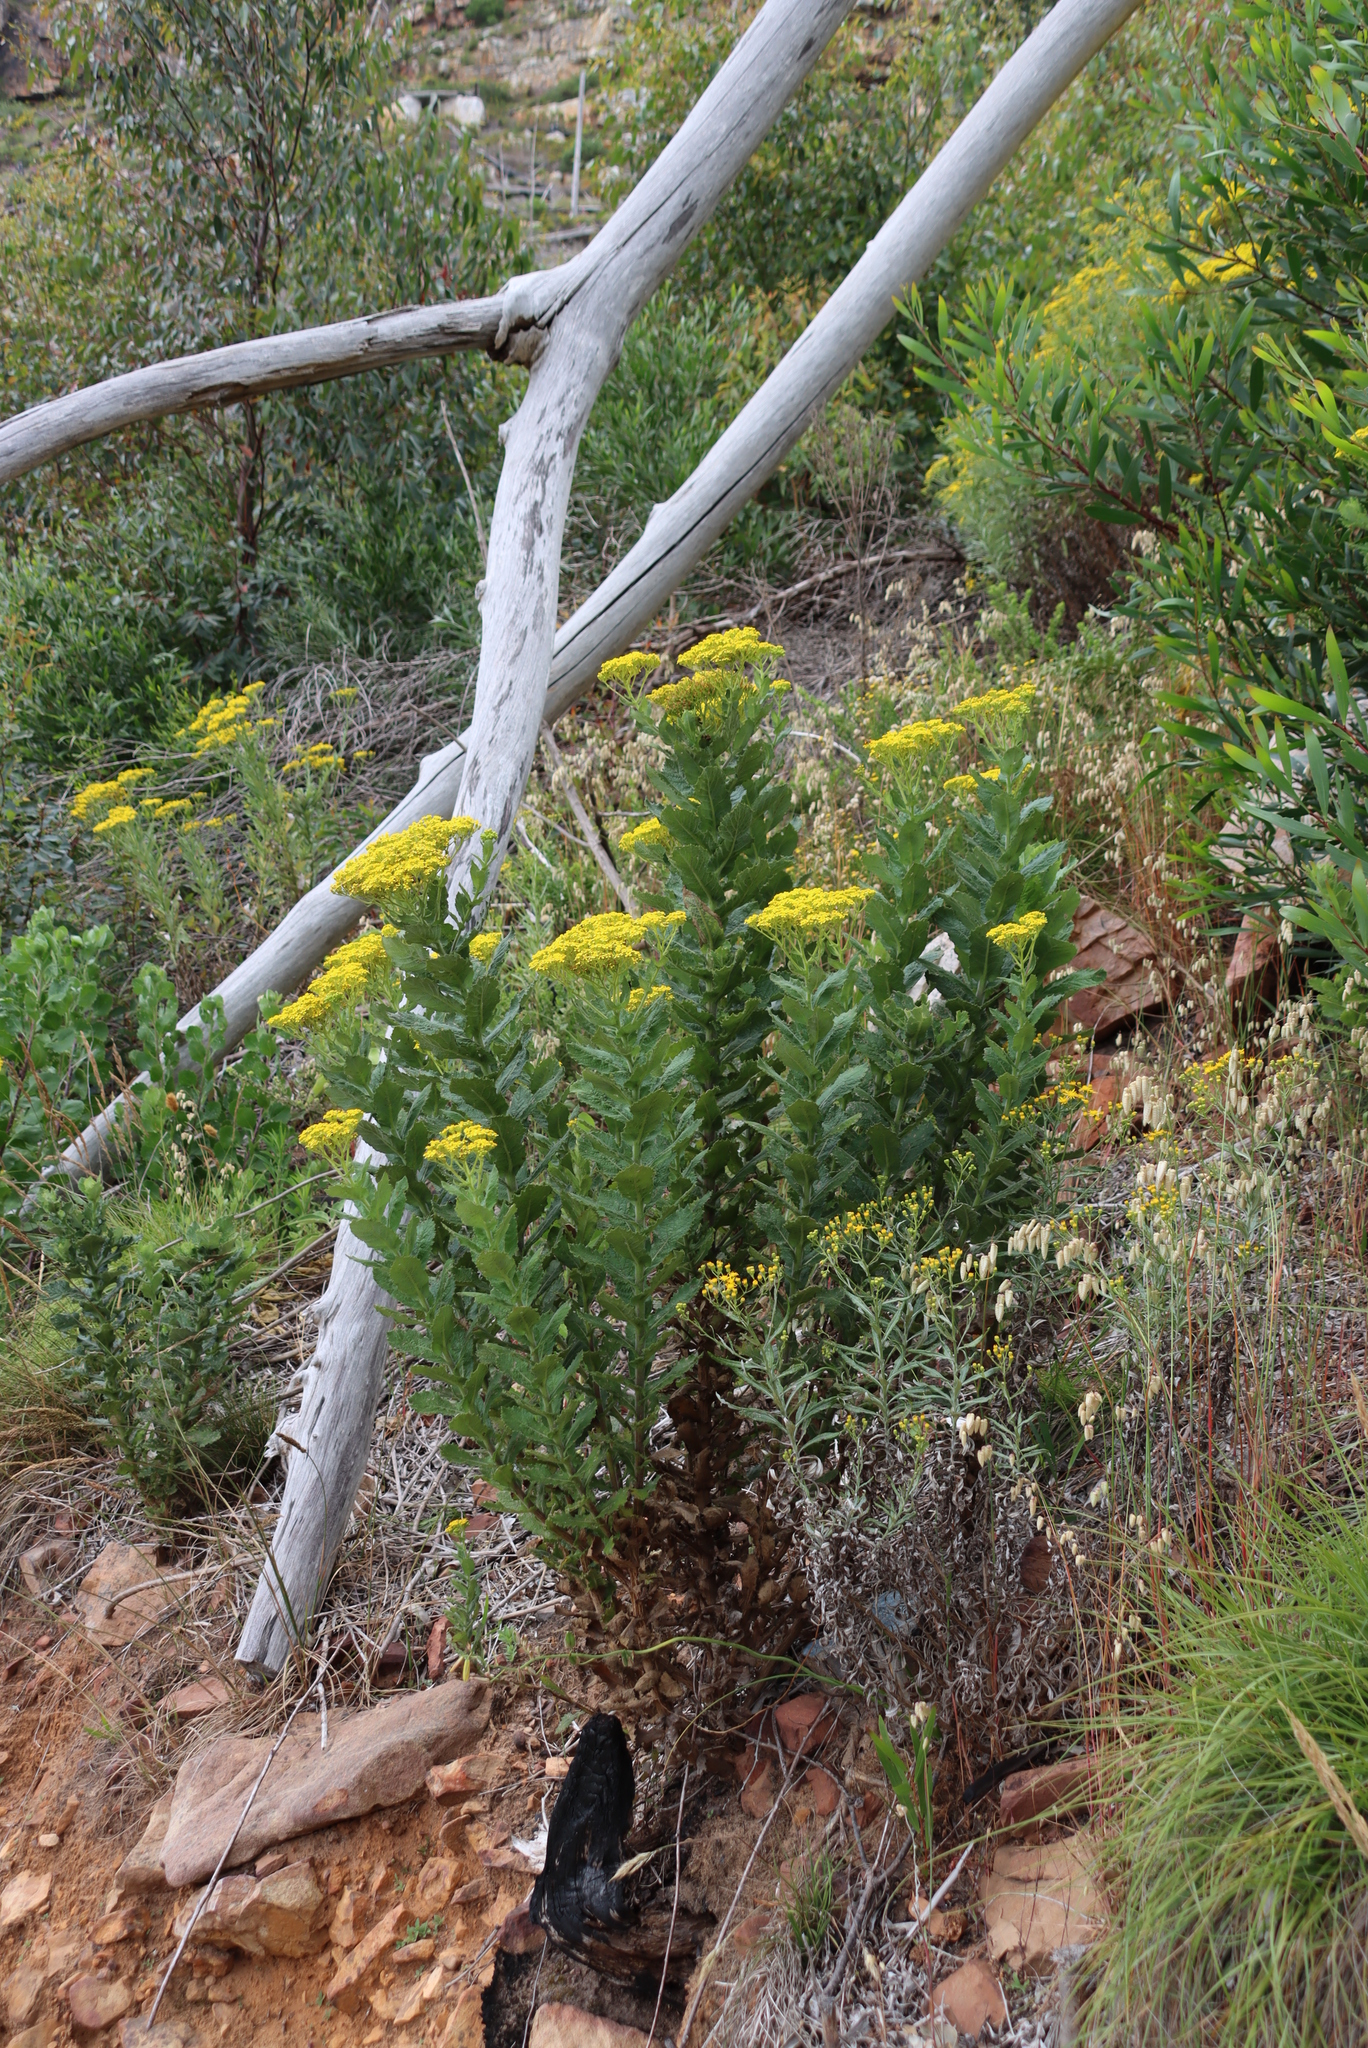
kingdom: Plantae
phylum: Tracheophyta
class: Magnoliopsida
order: Asterales
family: Asteraceae
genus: Senecio
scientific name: Senecio rigidus
